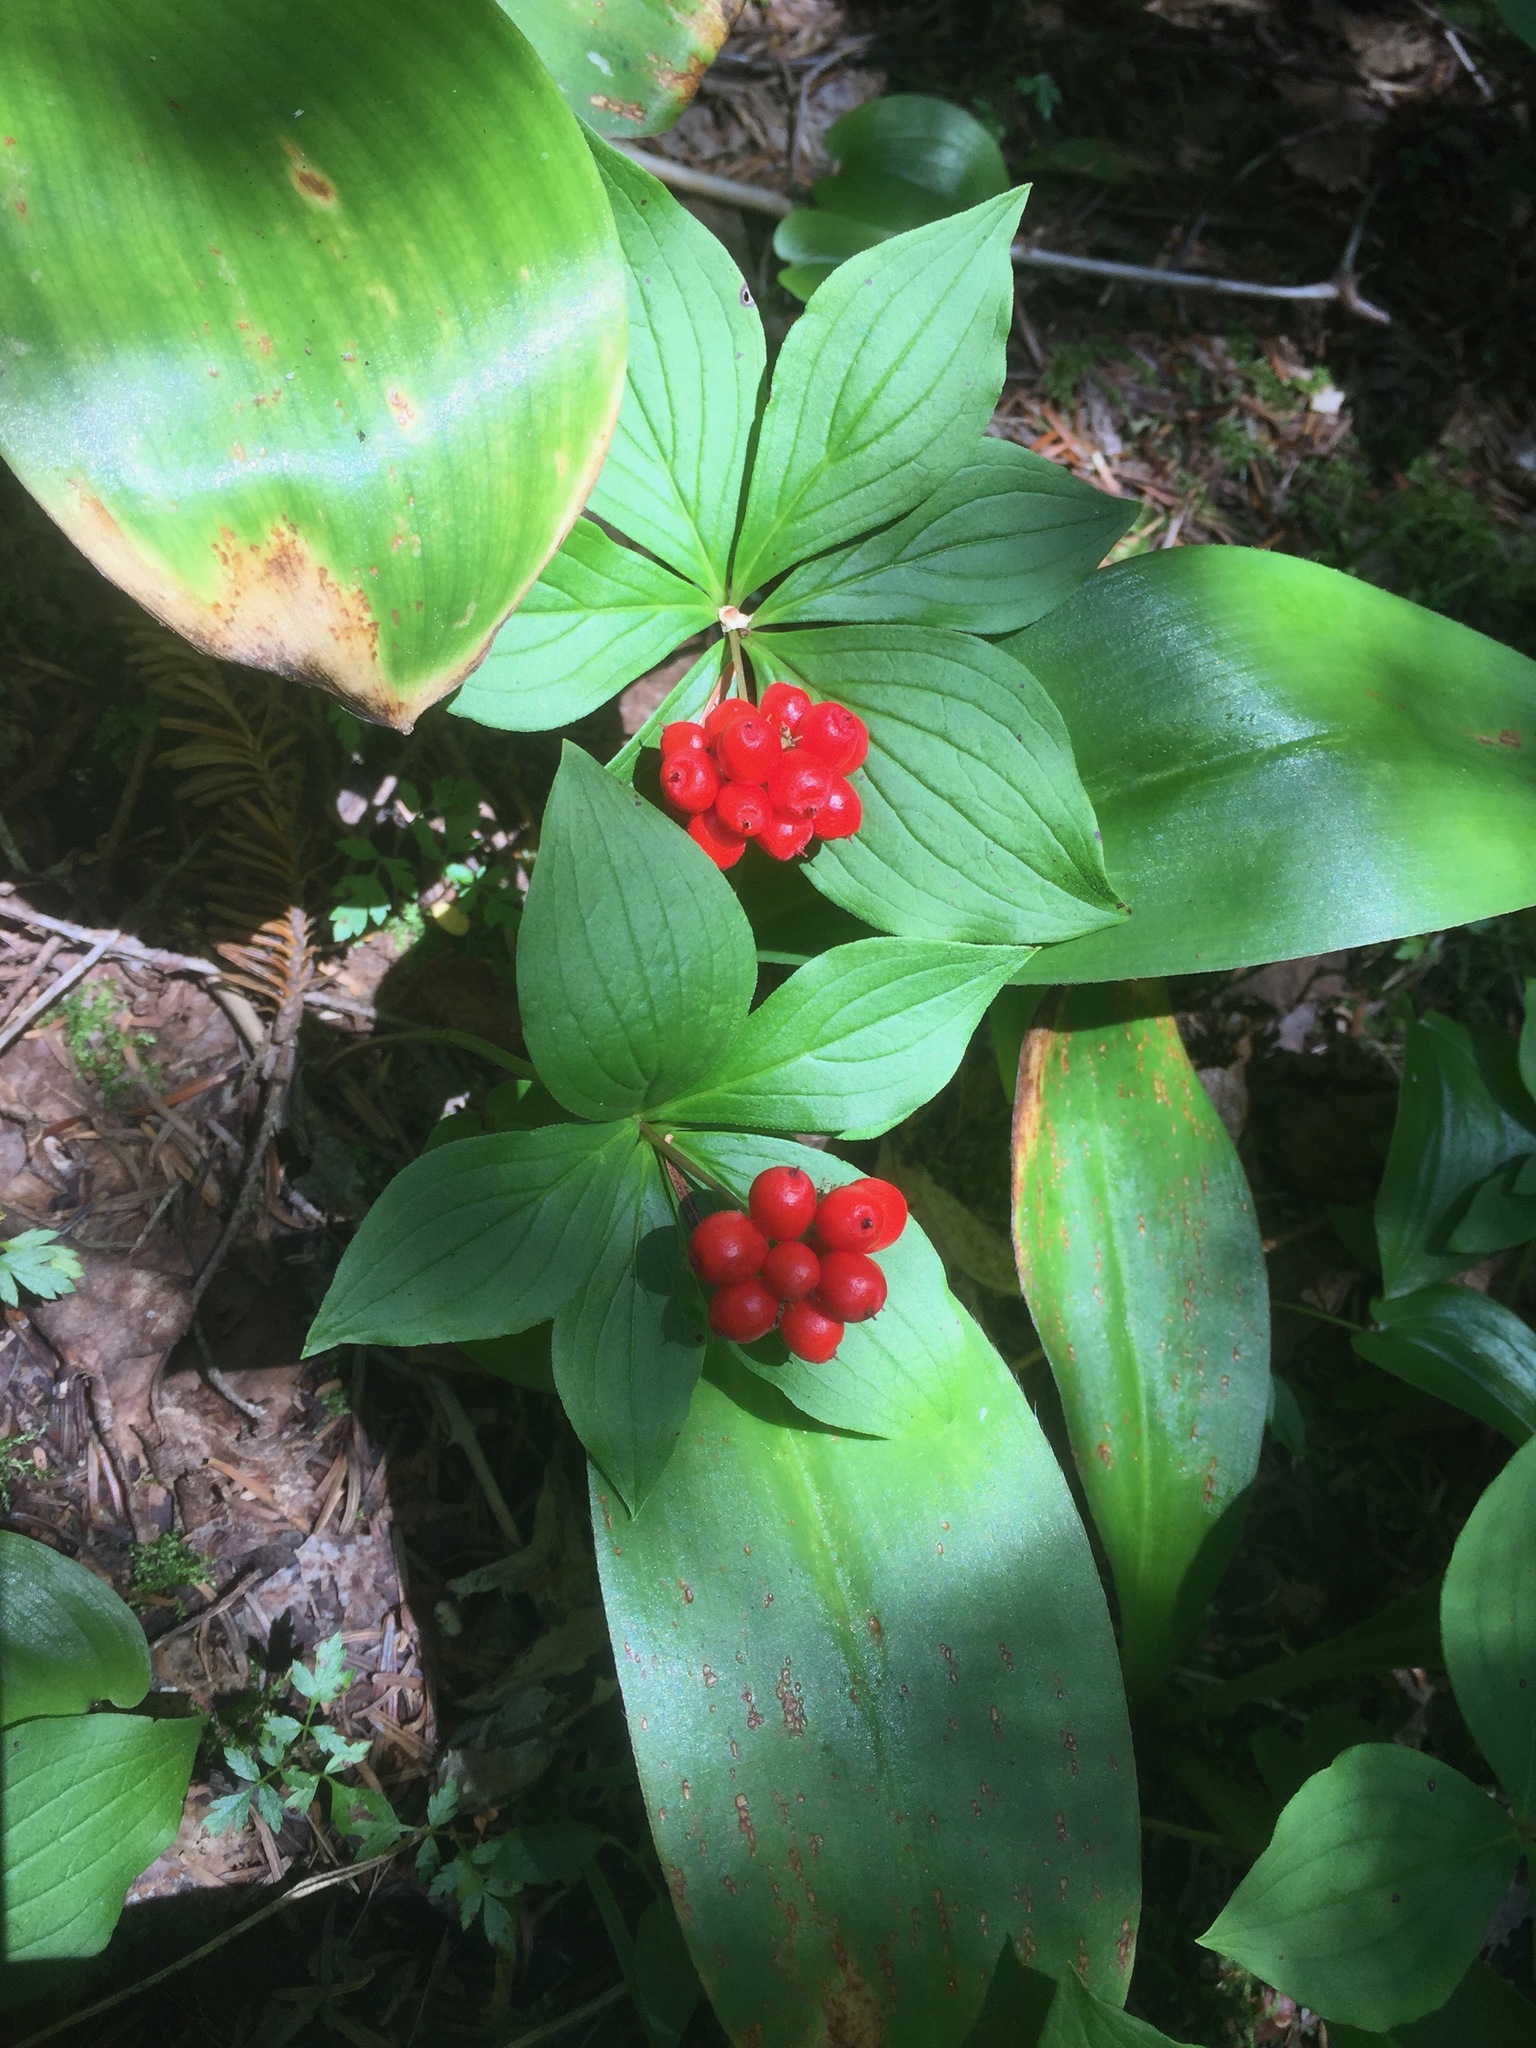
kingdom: Plantae
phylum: Tracheophyta
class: Magnoliopsida
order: Cornales
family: Cornaceae
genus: Cornus
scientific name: Cornus canadensis
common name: Creeping dogwood
